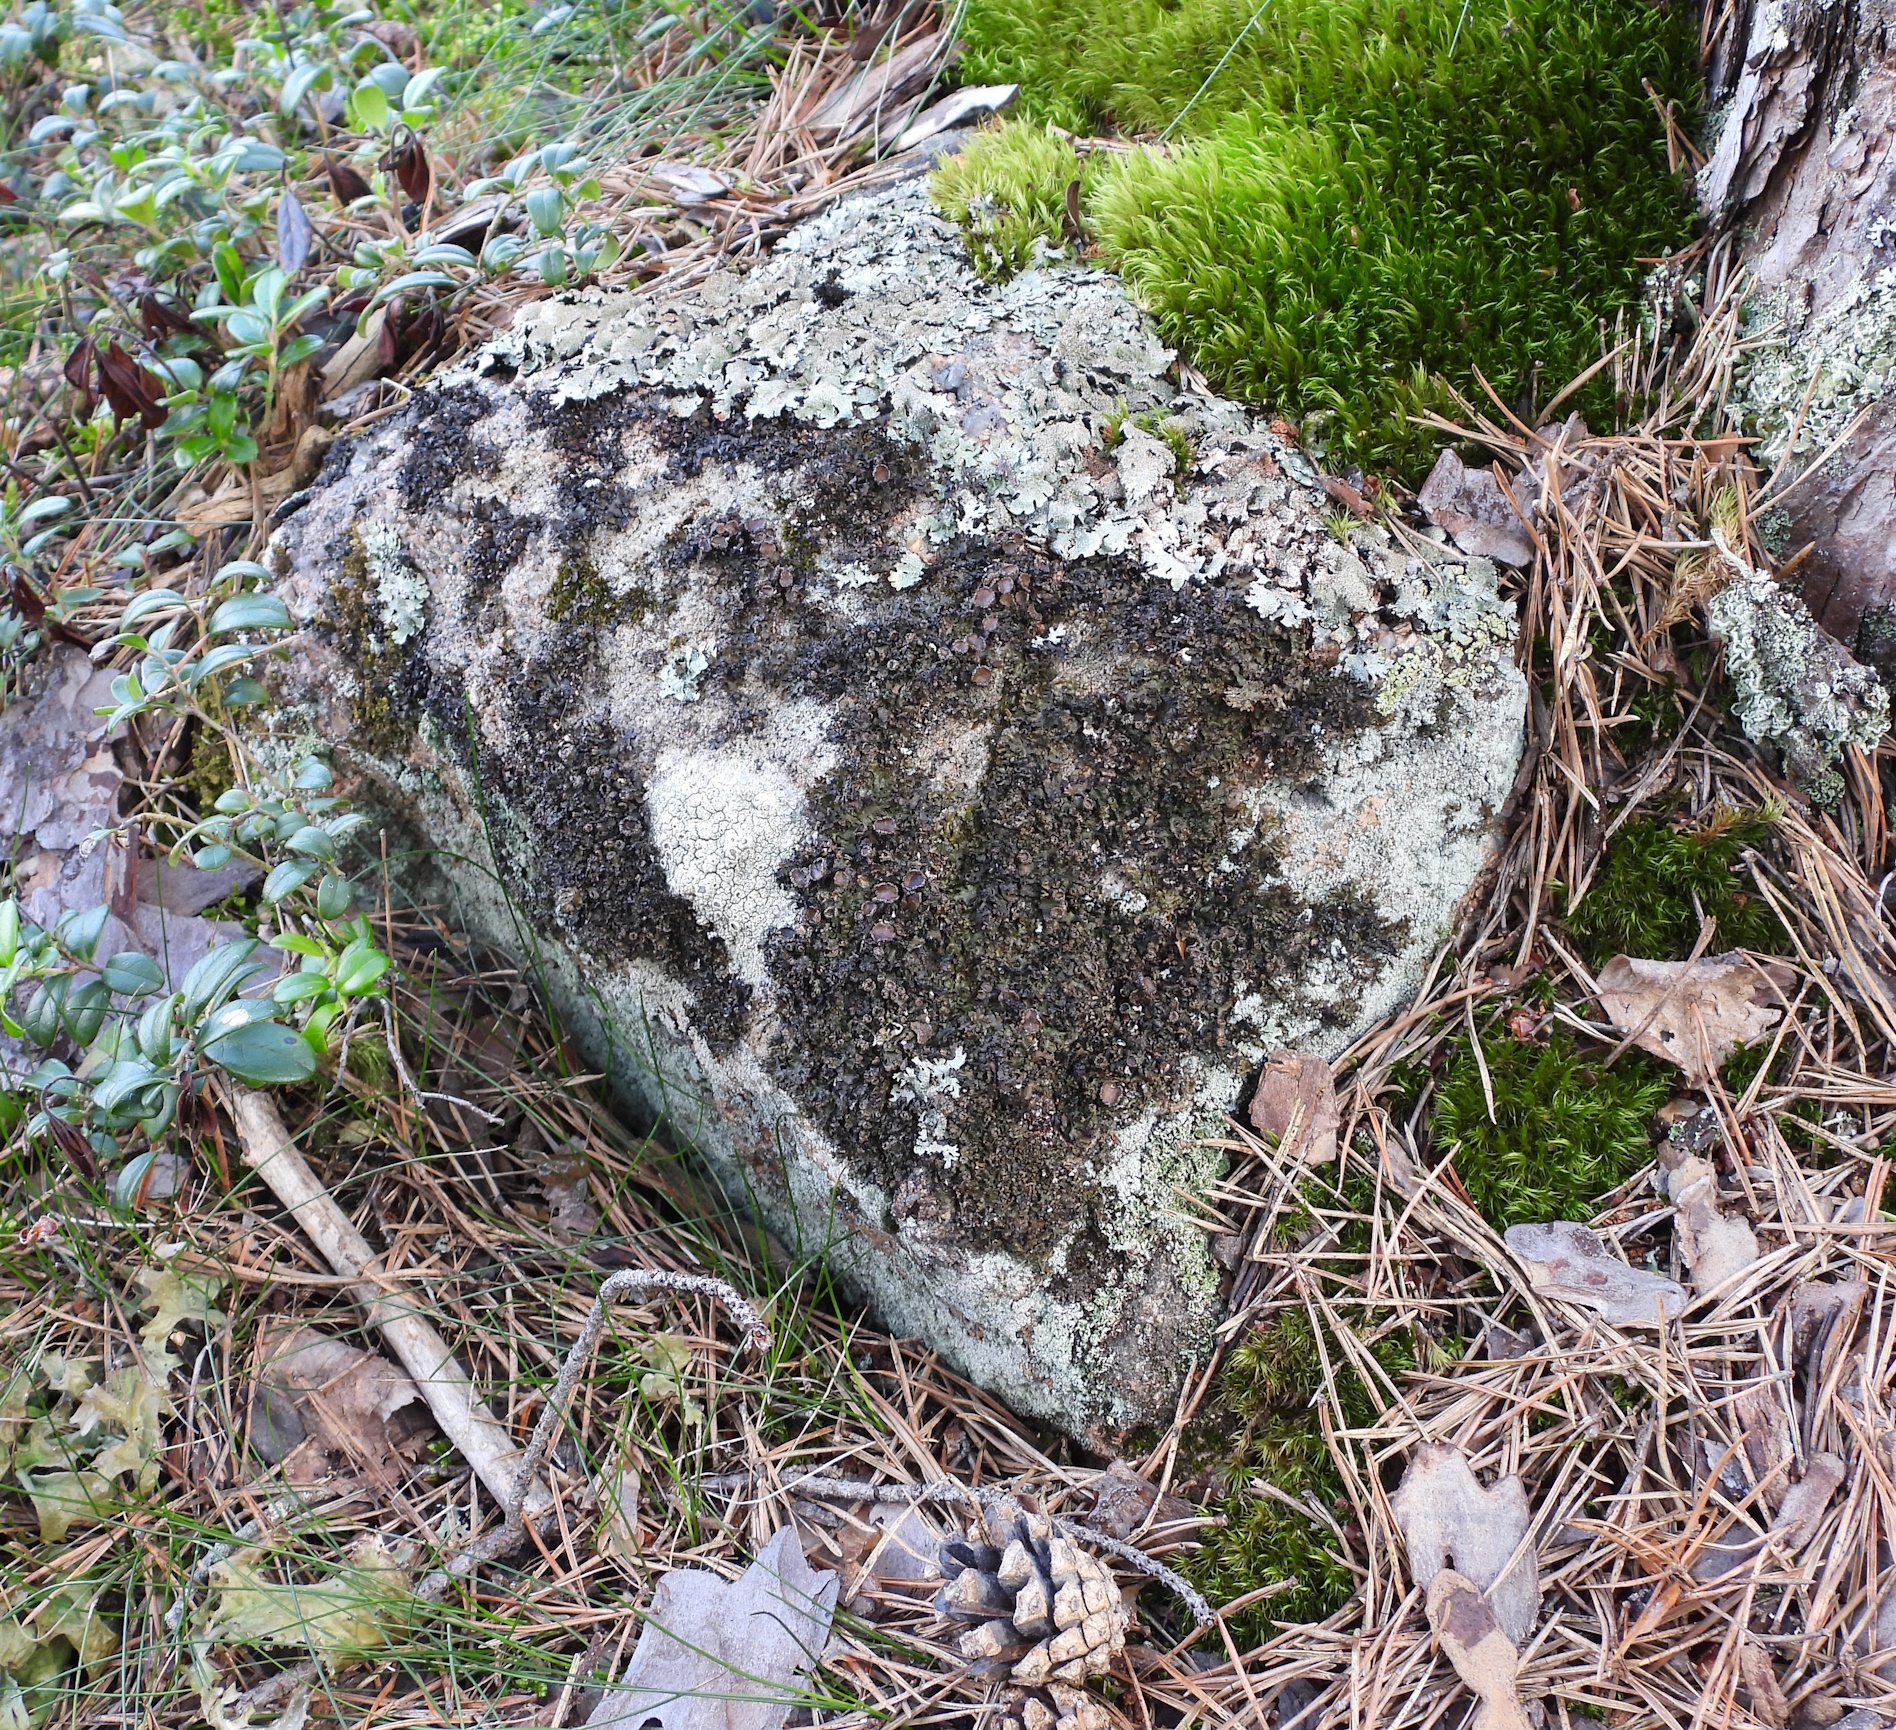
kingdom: Fungi
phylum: Ascomycota
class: Lecanoromycetes
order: Lecanorales
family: Parmeliaceae
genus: Melanelia
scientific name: Melanelia hepatizon
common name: Rimmed camouflage lichen
